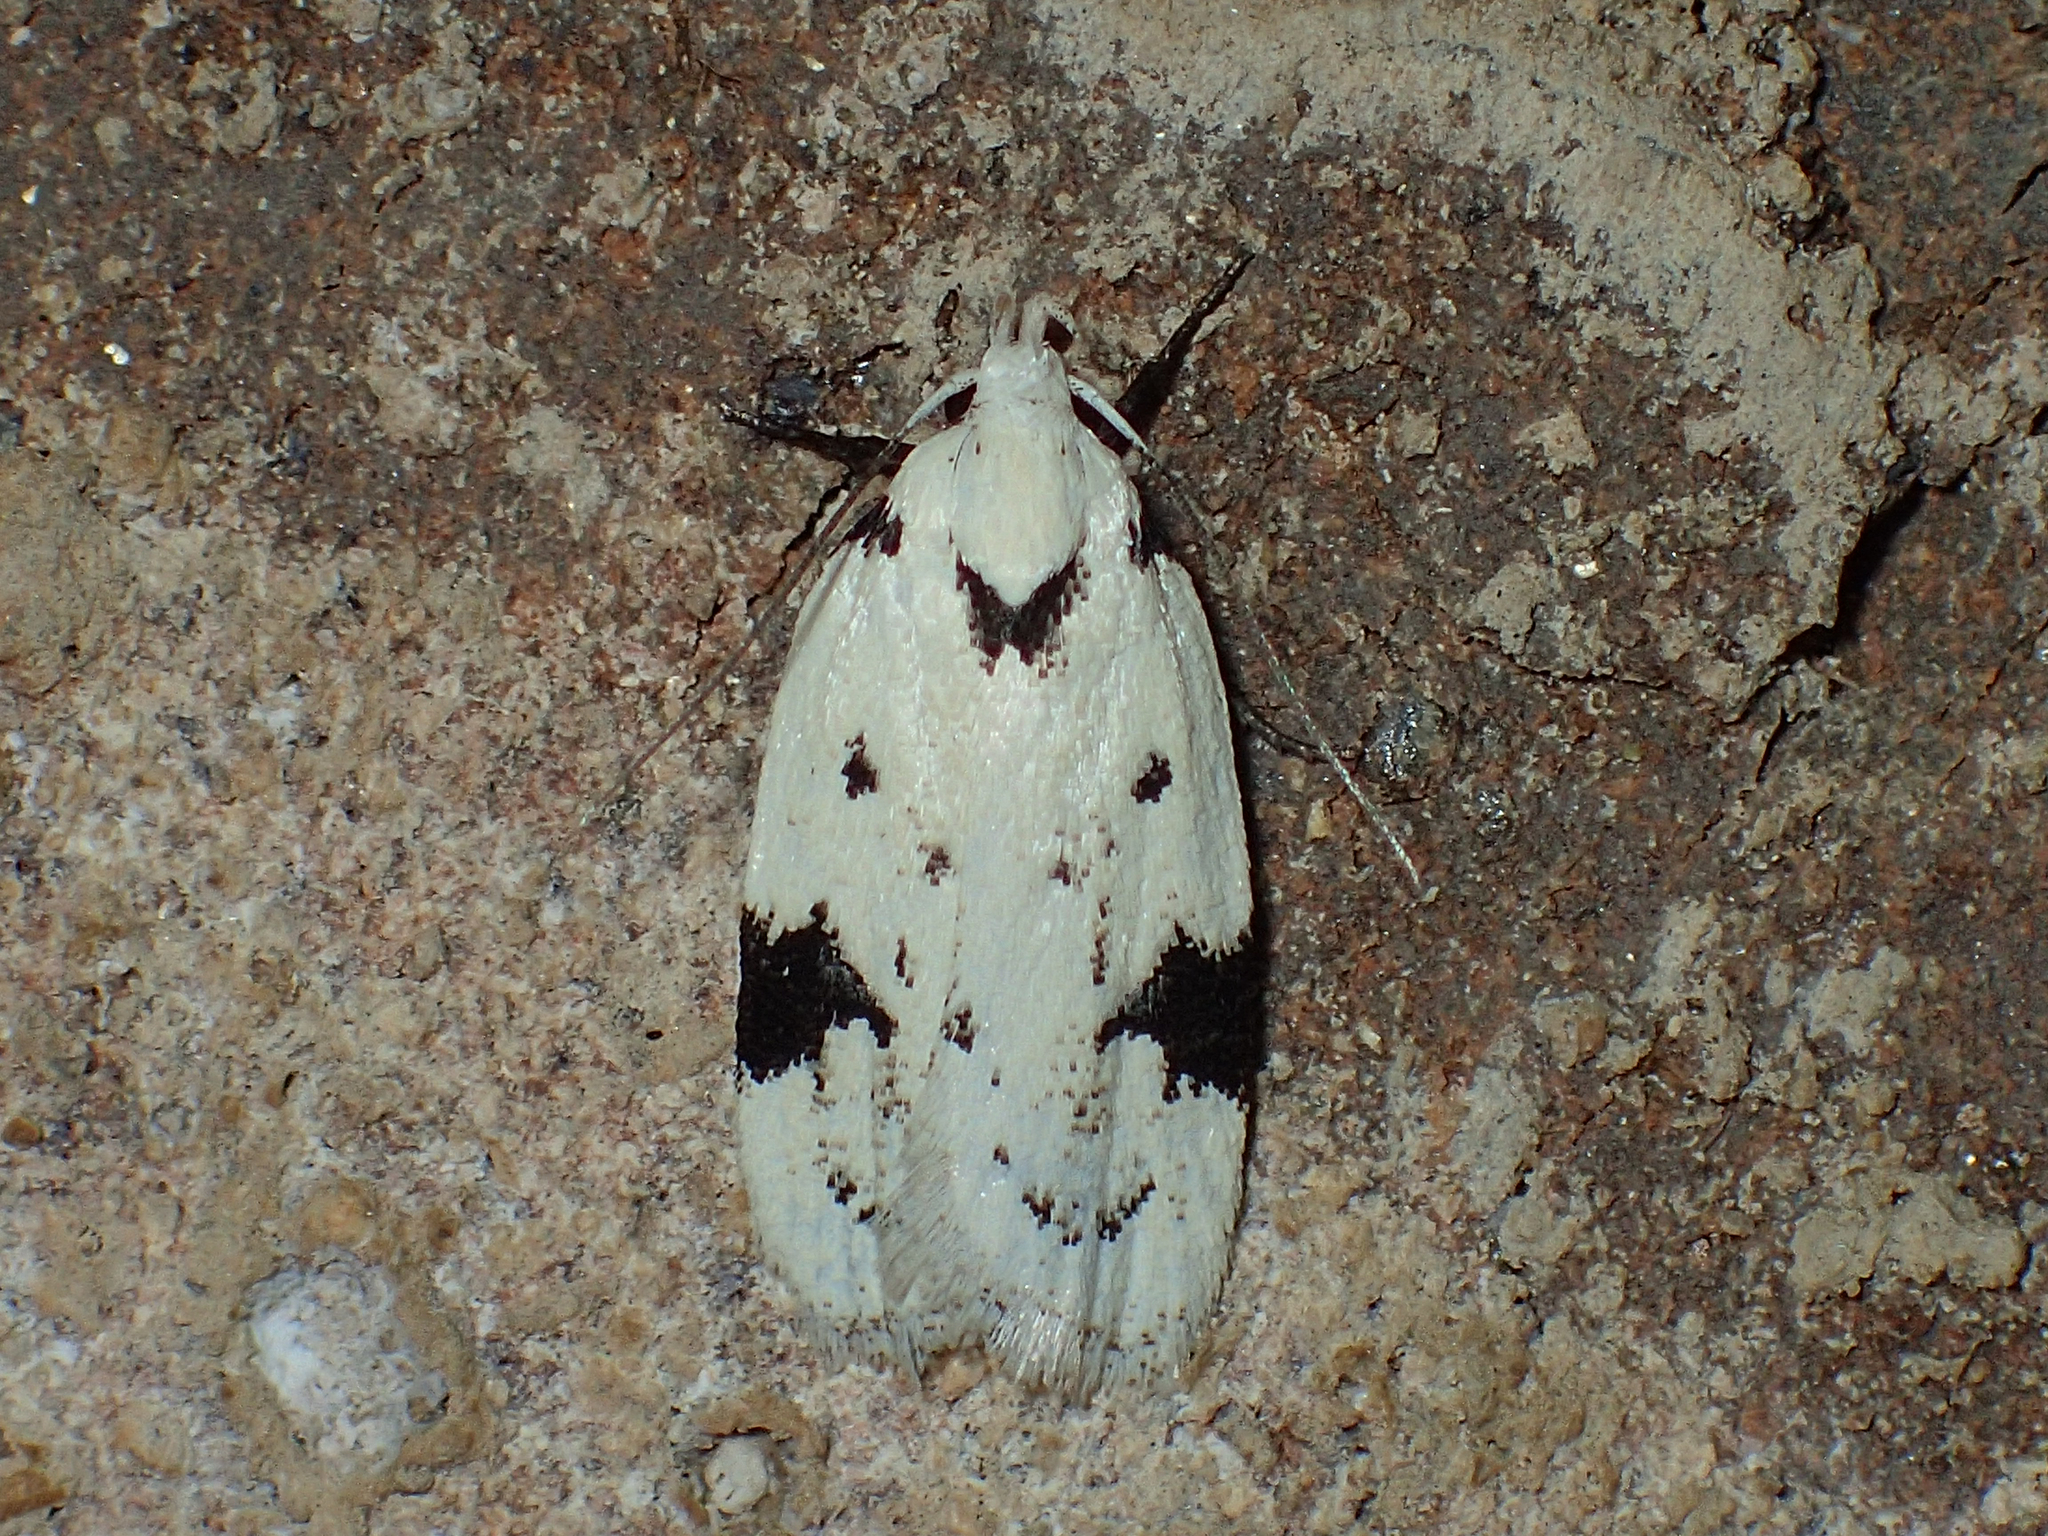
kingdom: Animalia
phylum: Arthropoda
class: Insecta
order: Lepidoptera
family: Oecophoridae
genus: Inga
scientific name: Inga sparsiciliella
